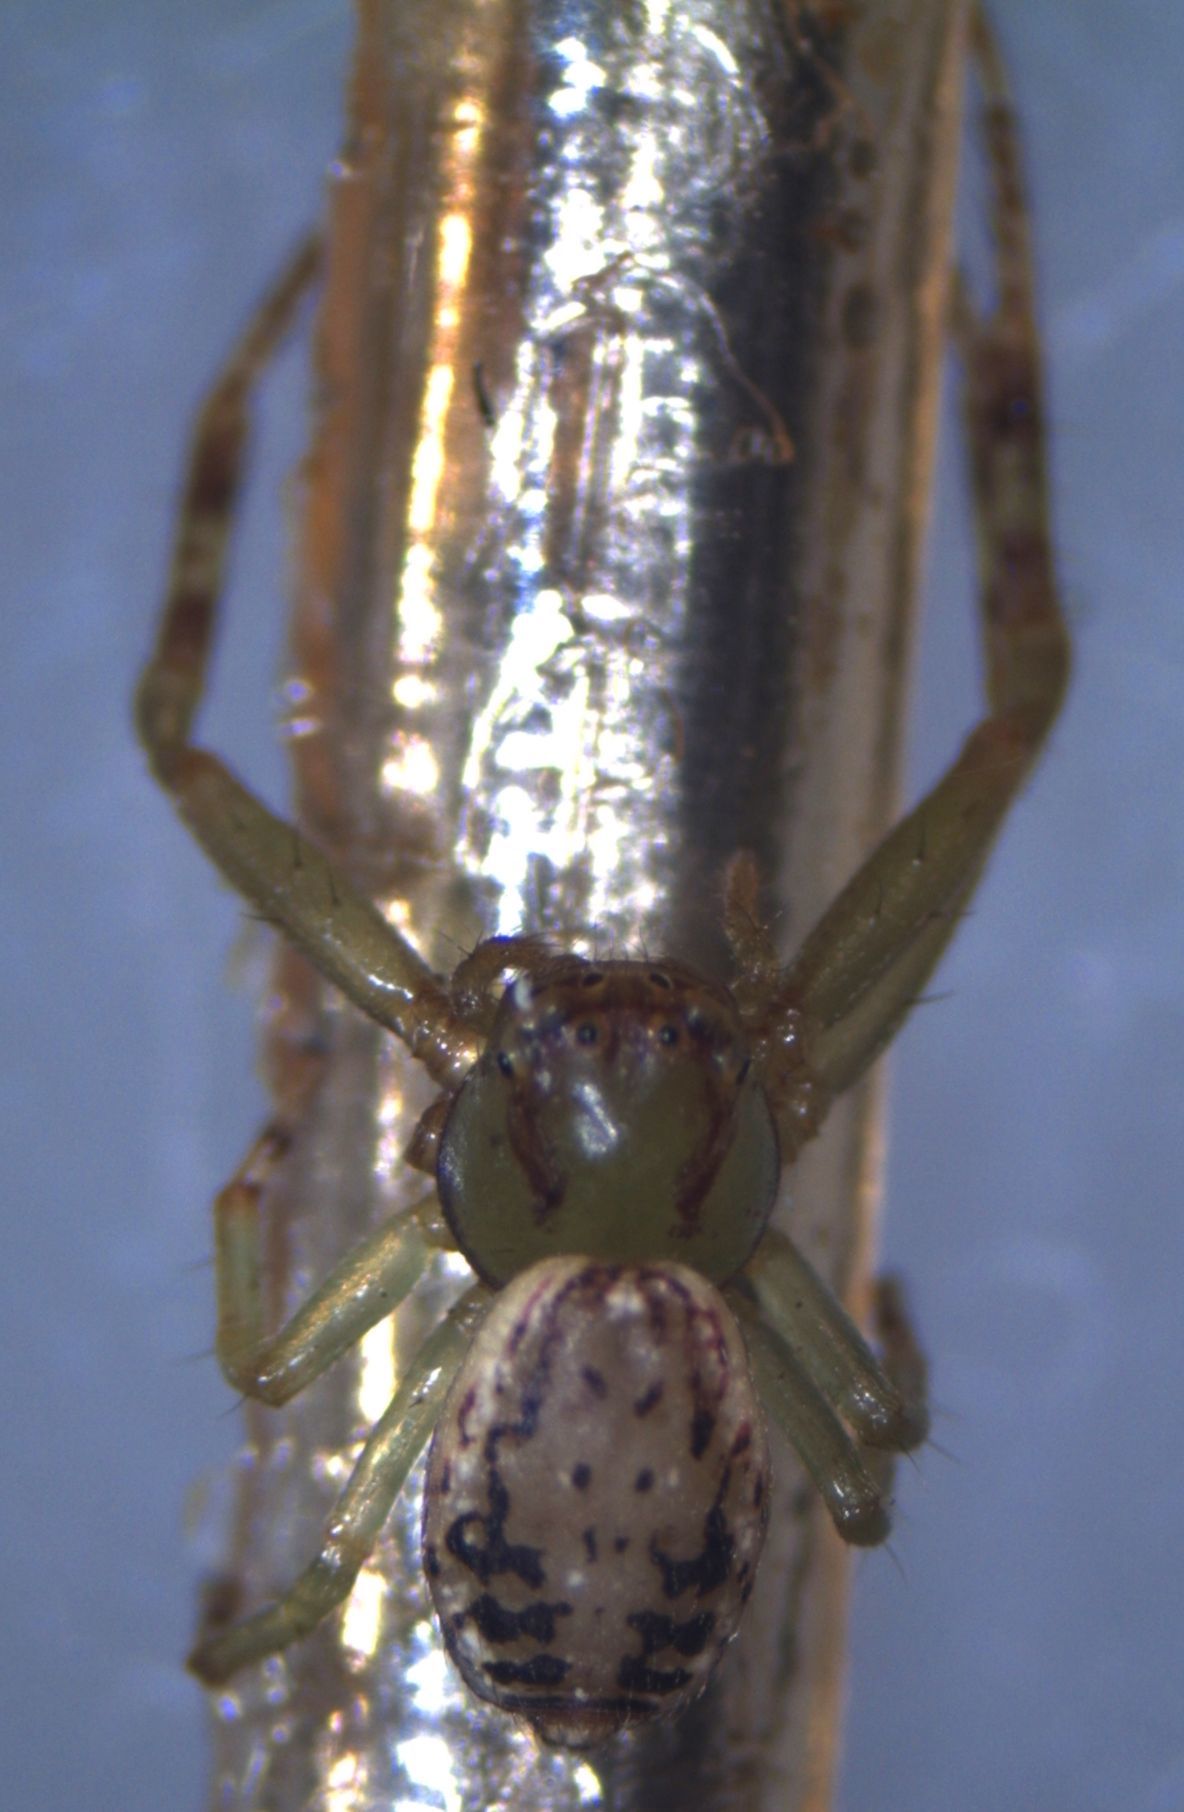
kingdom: Animalia
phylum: Arthropoda
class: Arachnida
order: Araneae
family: Thomisidae
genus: Diaea
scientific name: Diaea ambara
